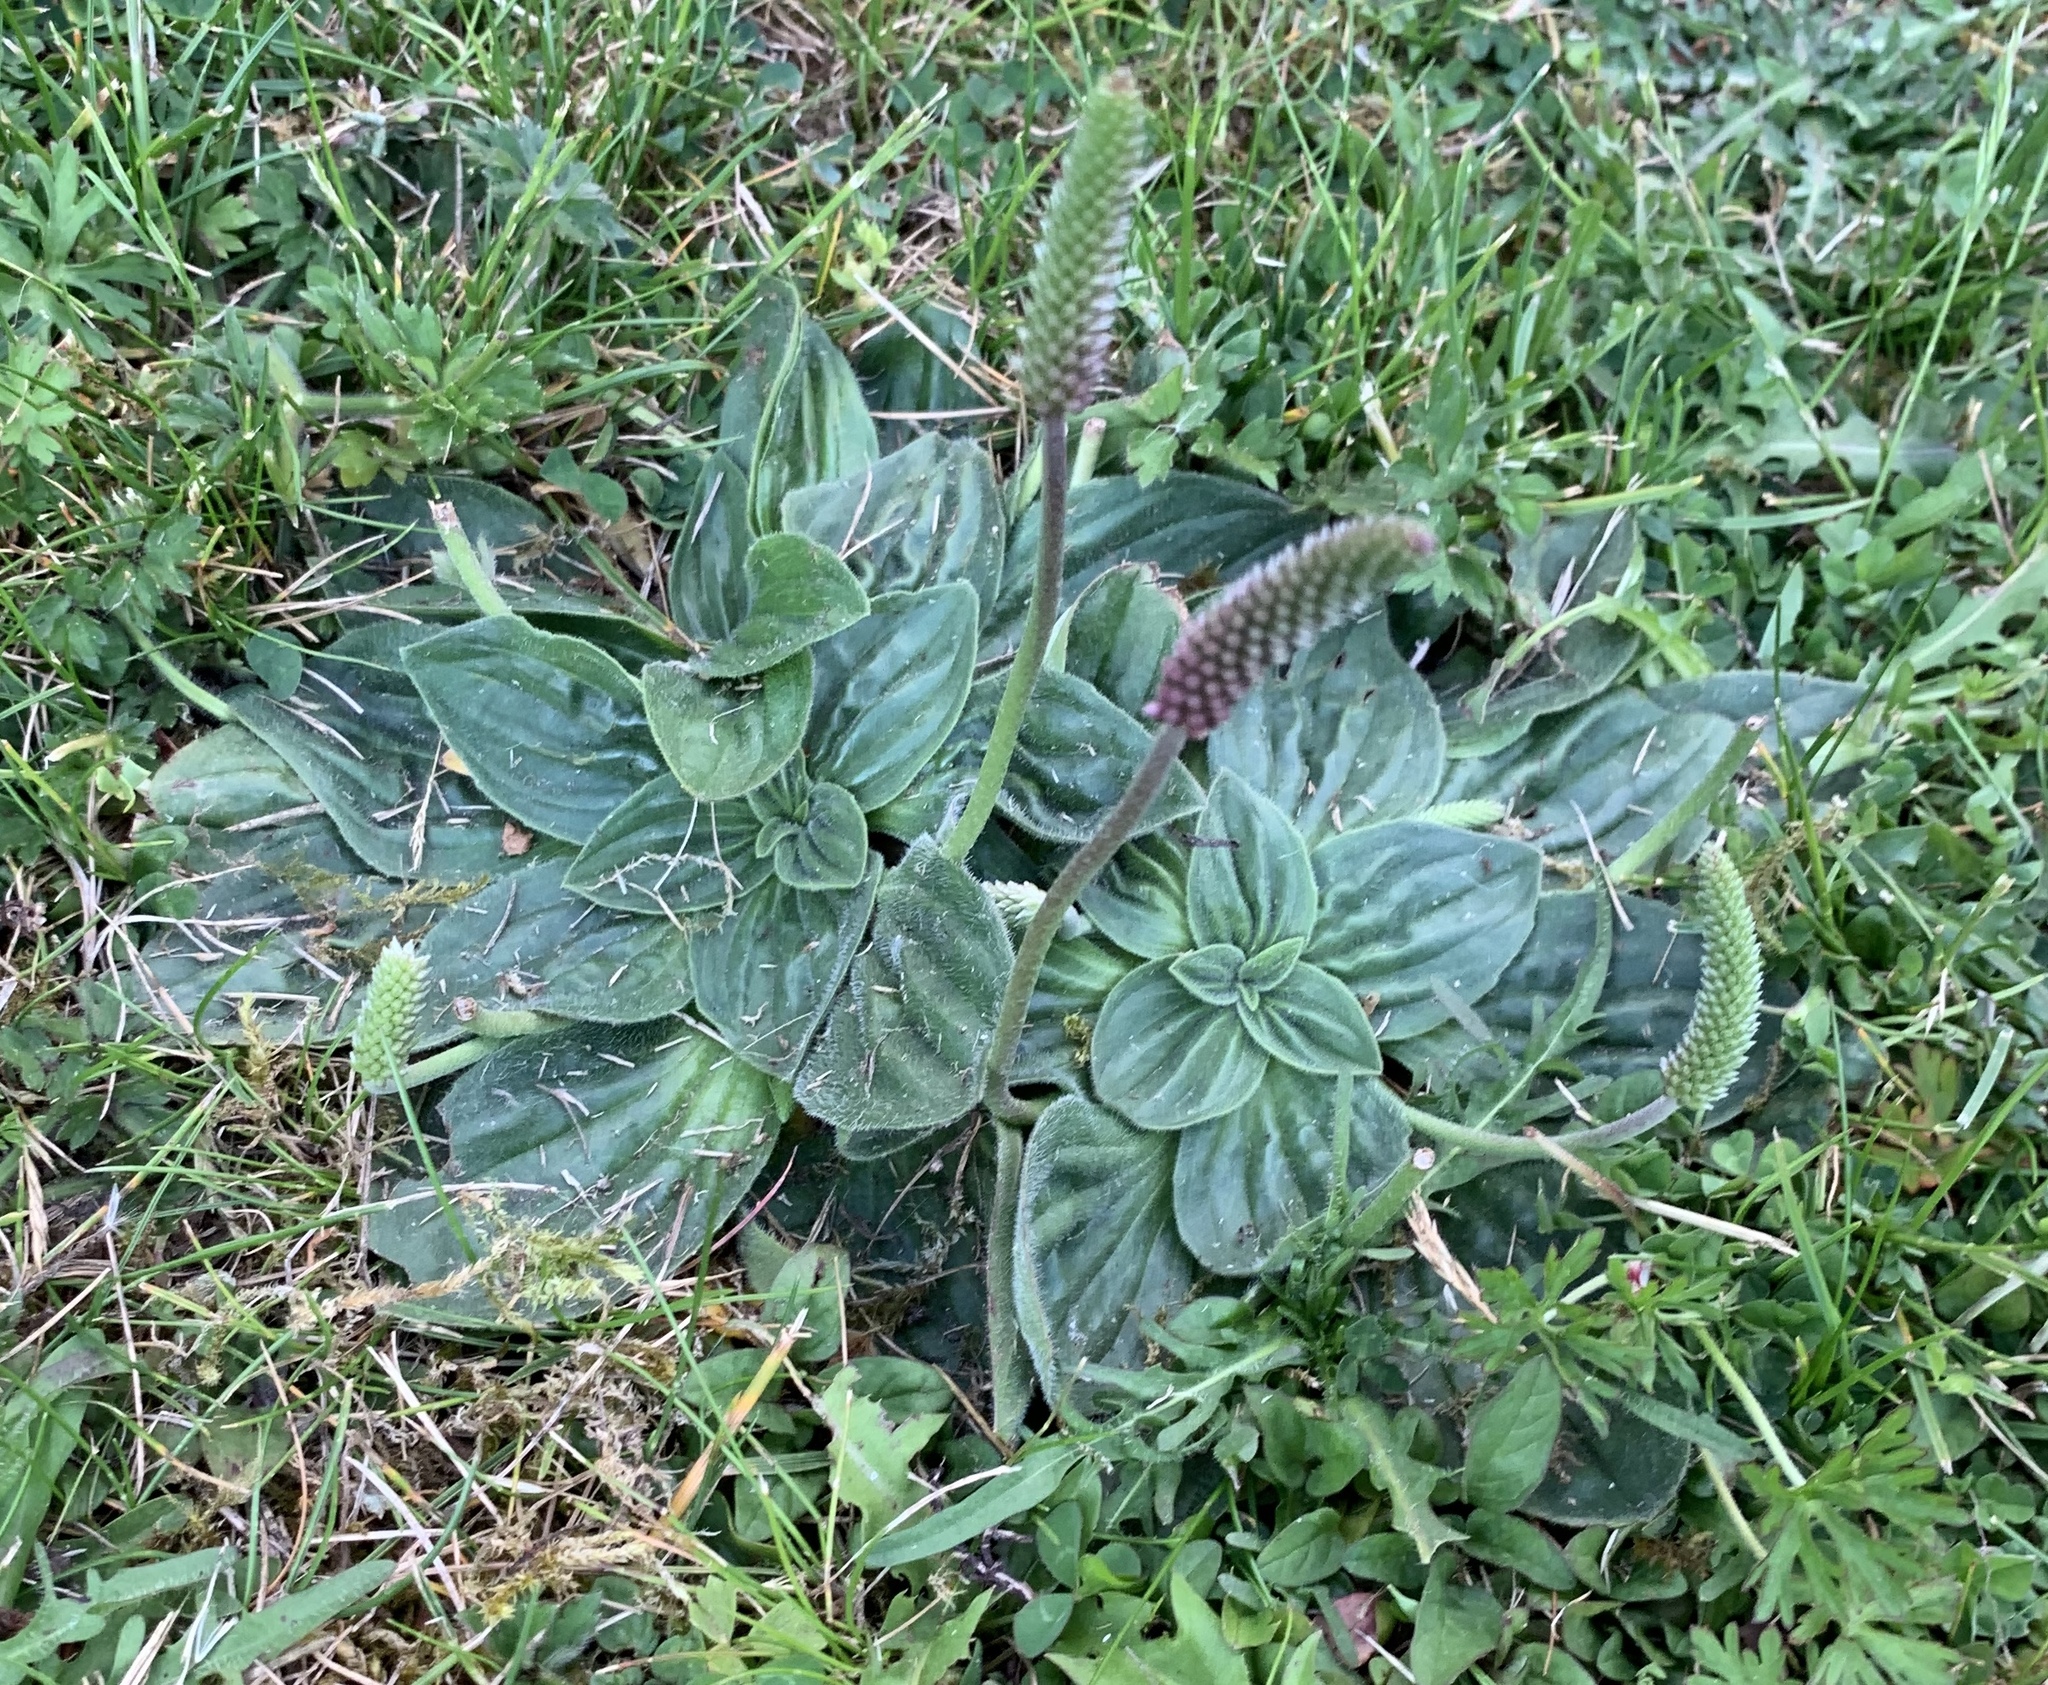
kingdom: Plantae
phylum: Tracheophyta
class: Magnoliopsida
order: Lamiales
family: Plantaginaceae
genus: Plantago
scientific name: Plantago media
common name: Hoary plantain
